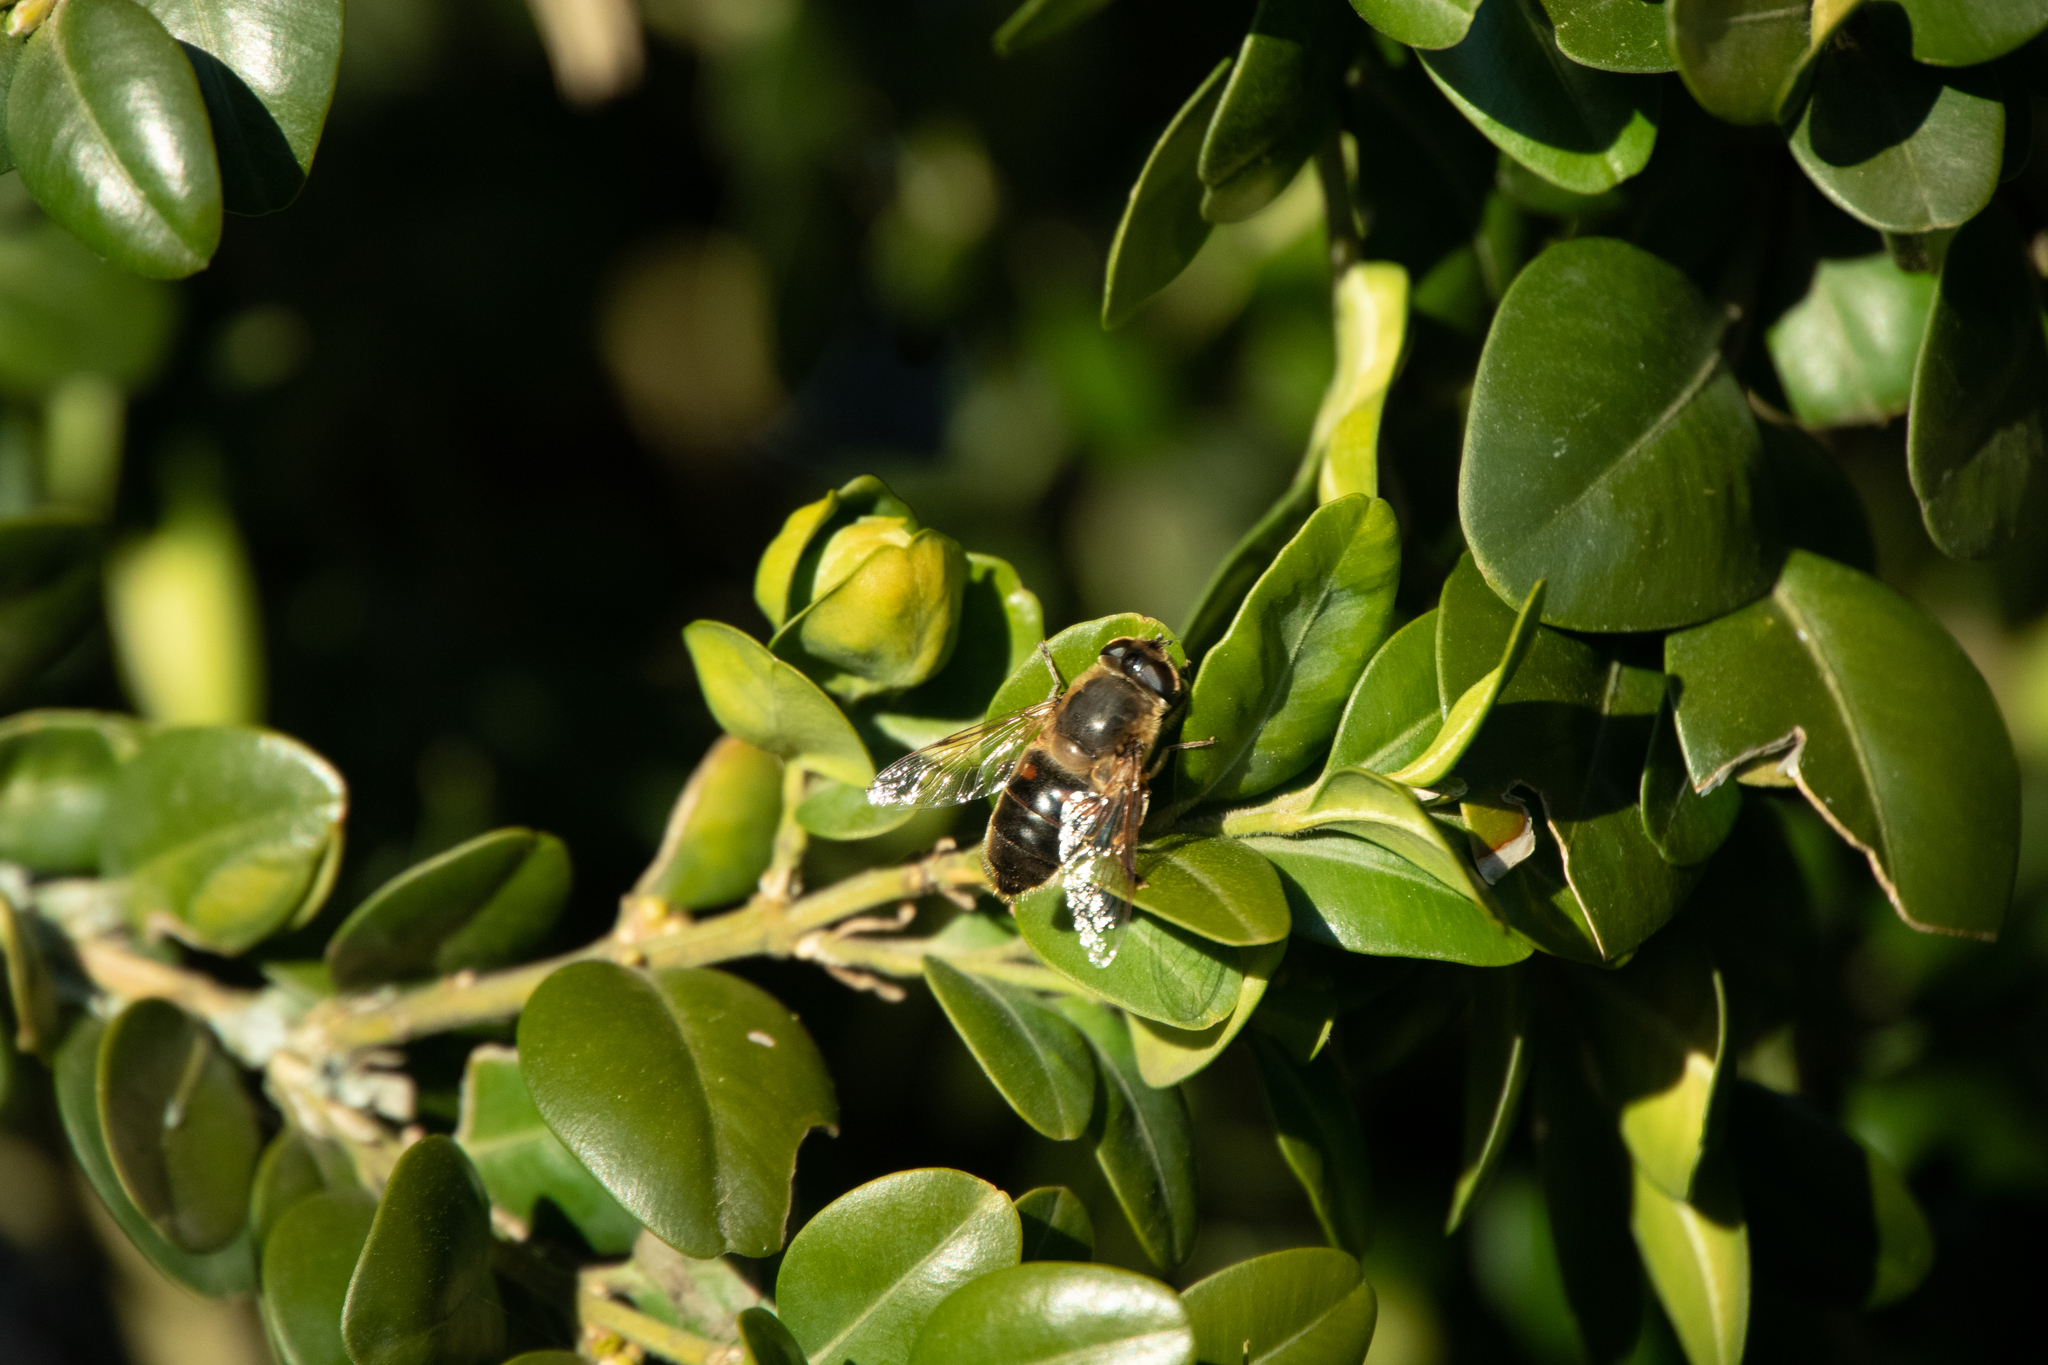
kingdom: Animalia
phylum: Arthropoda
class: Insecta
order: Diptera
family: Syrphidae
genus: Eristalis
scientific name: Eristalis tenax
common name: Drone fly
